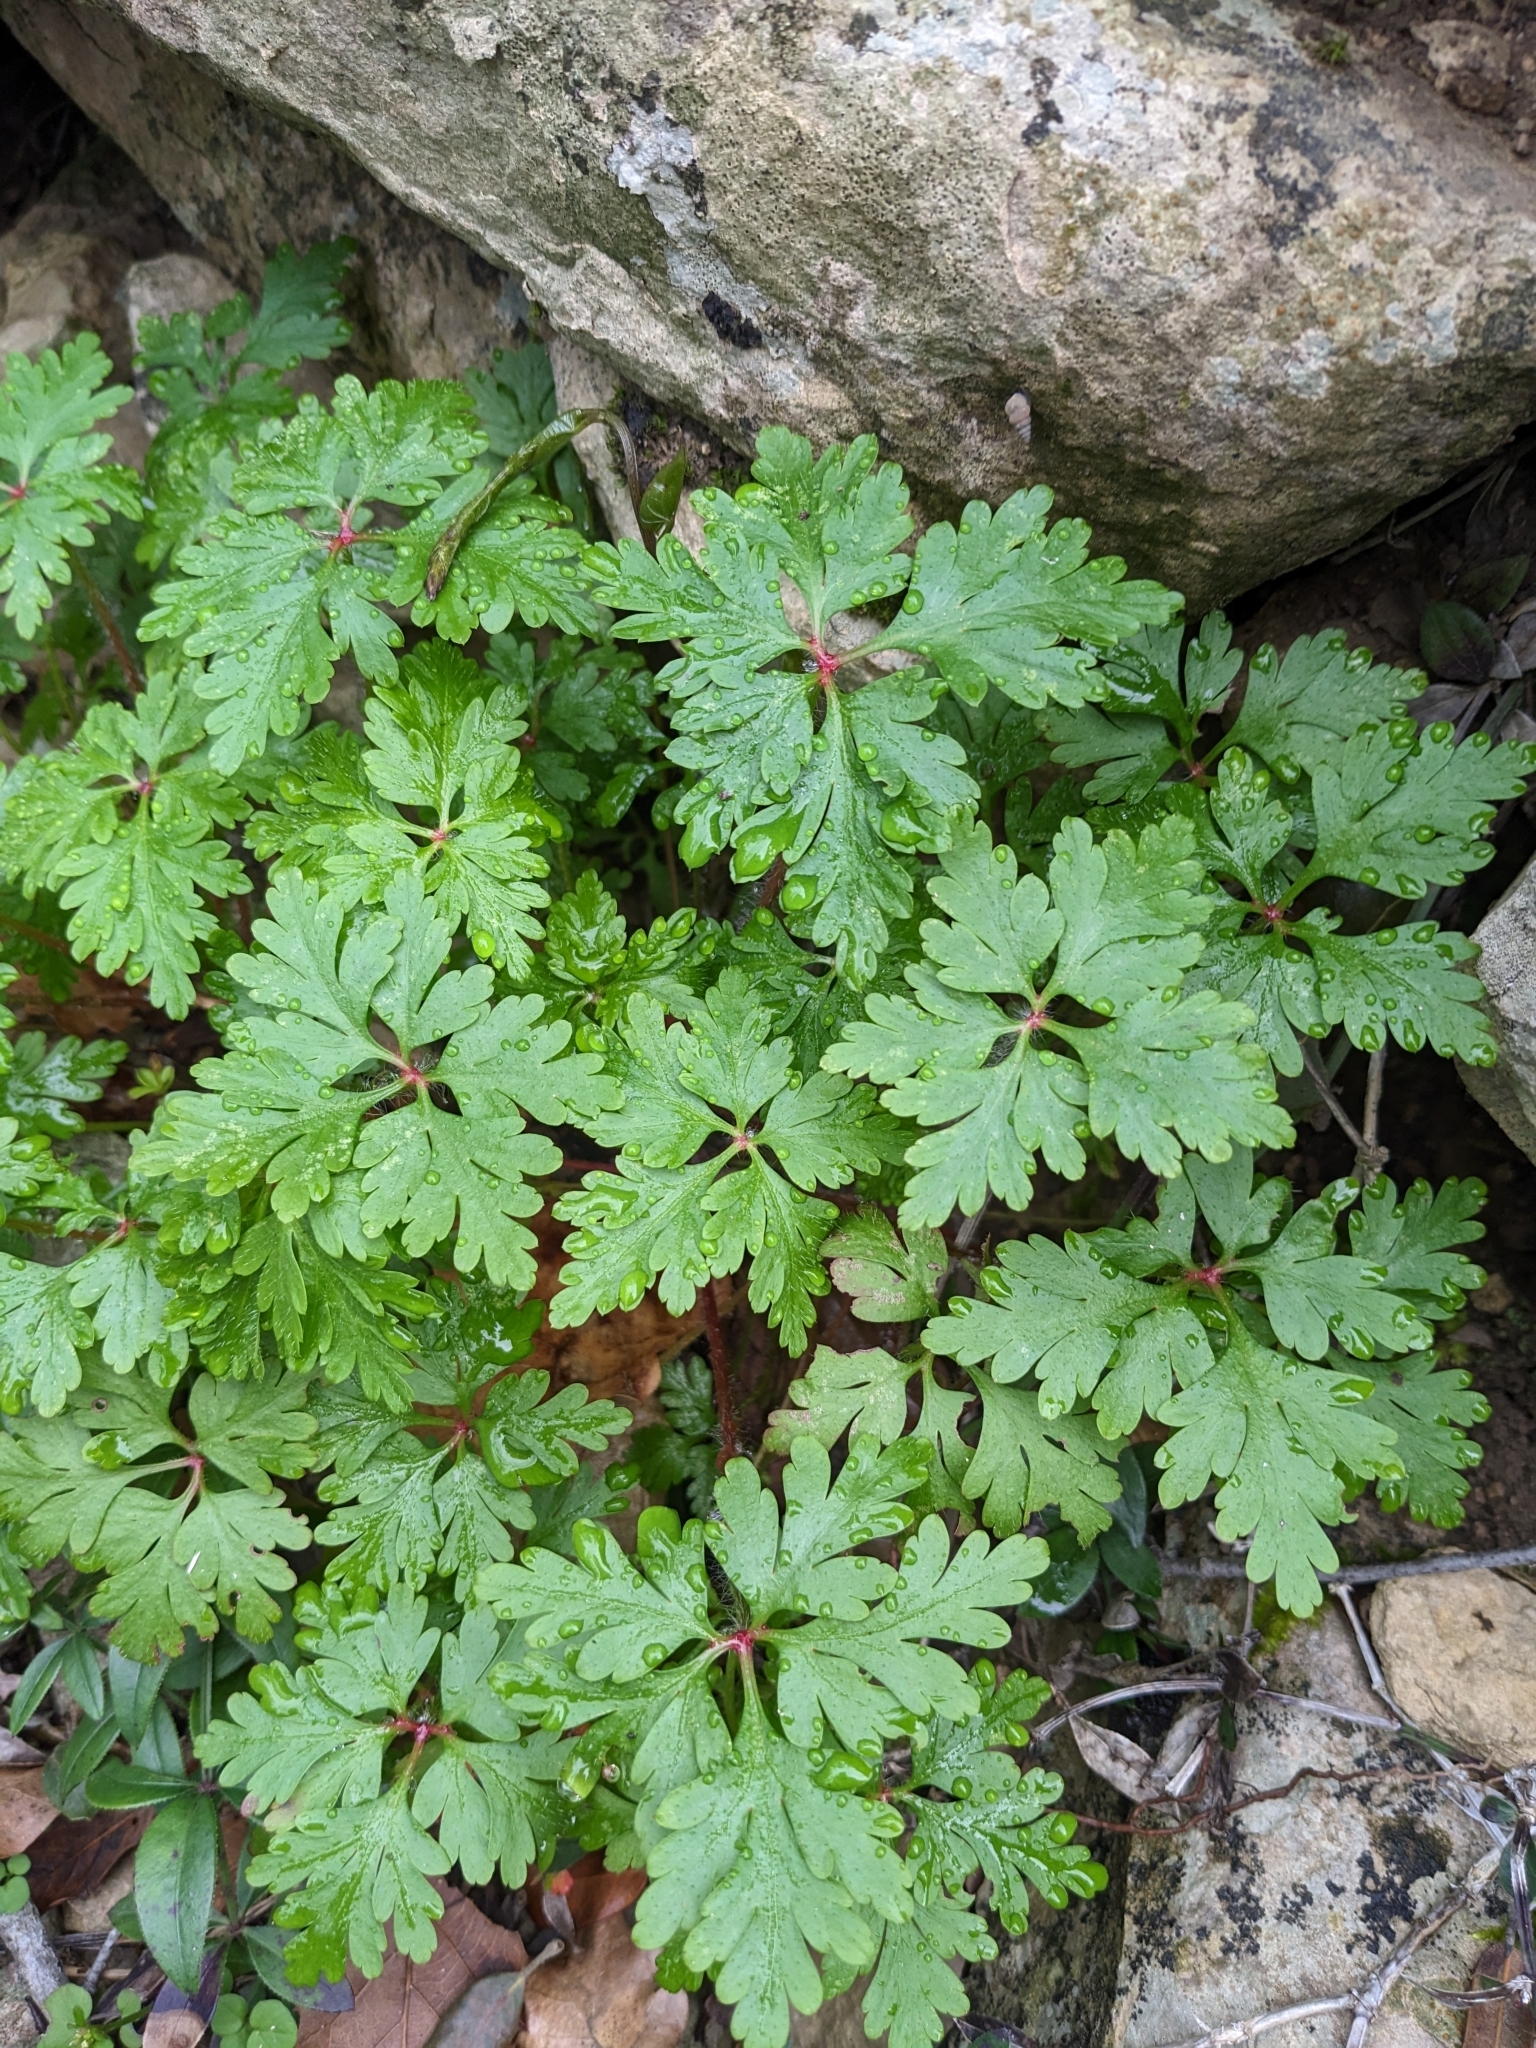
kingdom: Plantae
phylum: Tracheophyta
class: Magnoliopsida
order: Geraniales
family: Geraniaceae
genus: Geranium
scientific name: Geranium purpureum
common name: Little-robin
